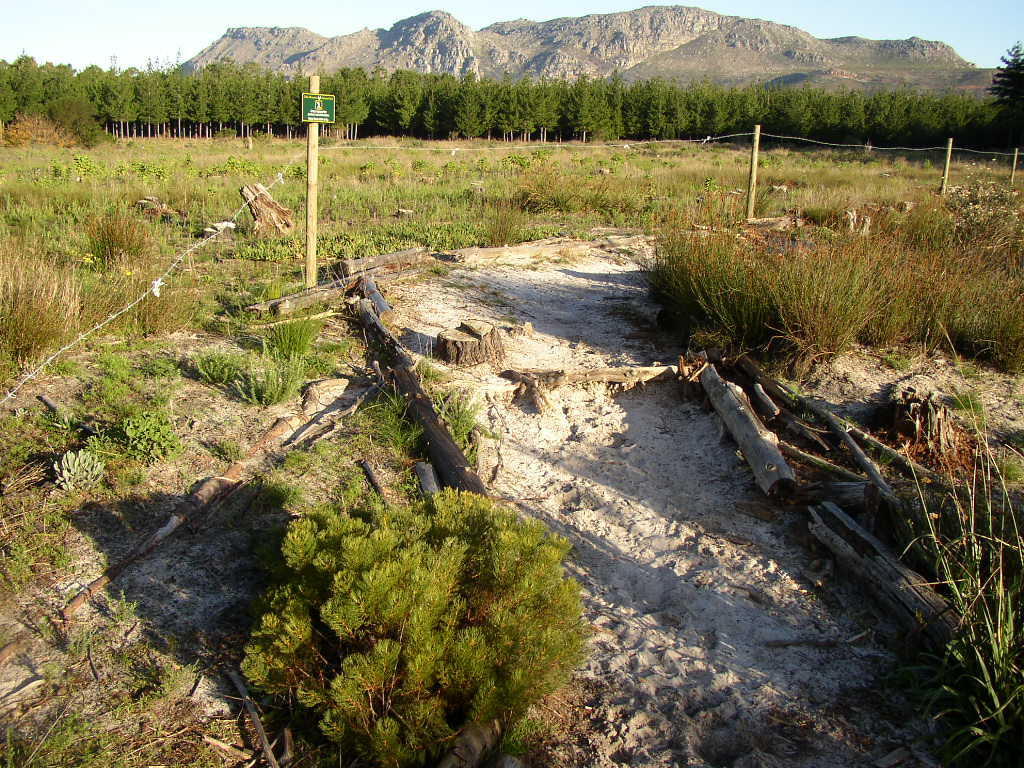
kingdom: Plantae
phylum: Tracheophyta
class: Liliopsida
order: Poales
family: Restionaceae
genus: Restio
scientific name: Restio bifurcus
